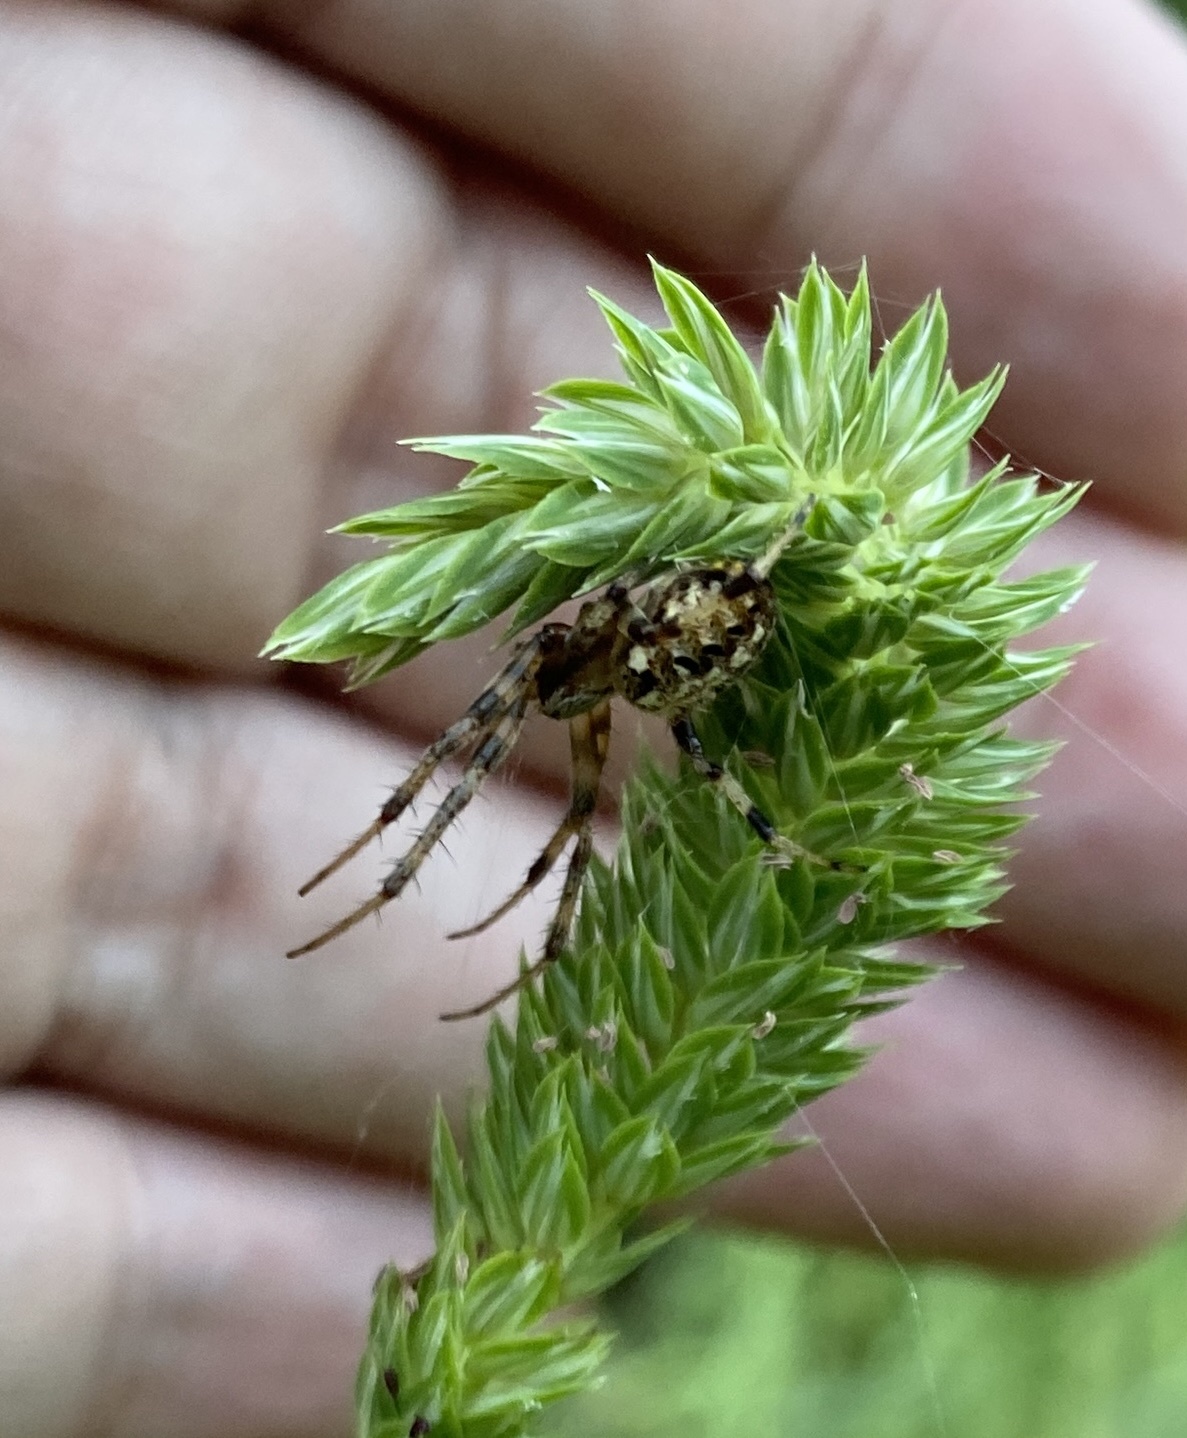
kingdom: Animalia
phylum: Arthropoda
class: Arachnida
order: Araneae
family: Araneidae
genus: Neoscona
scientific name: Neoscona arabesca
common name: Orb weavers
